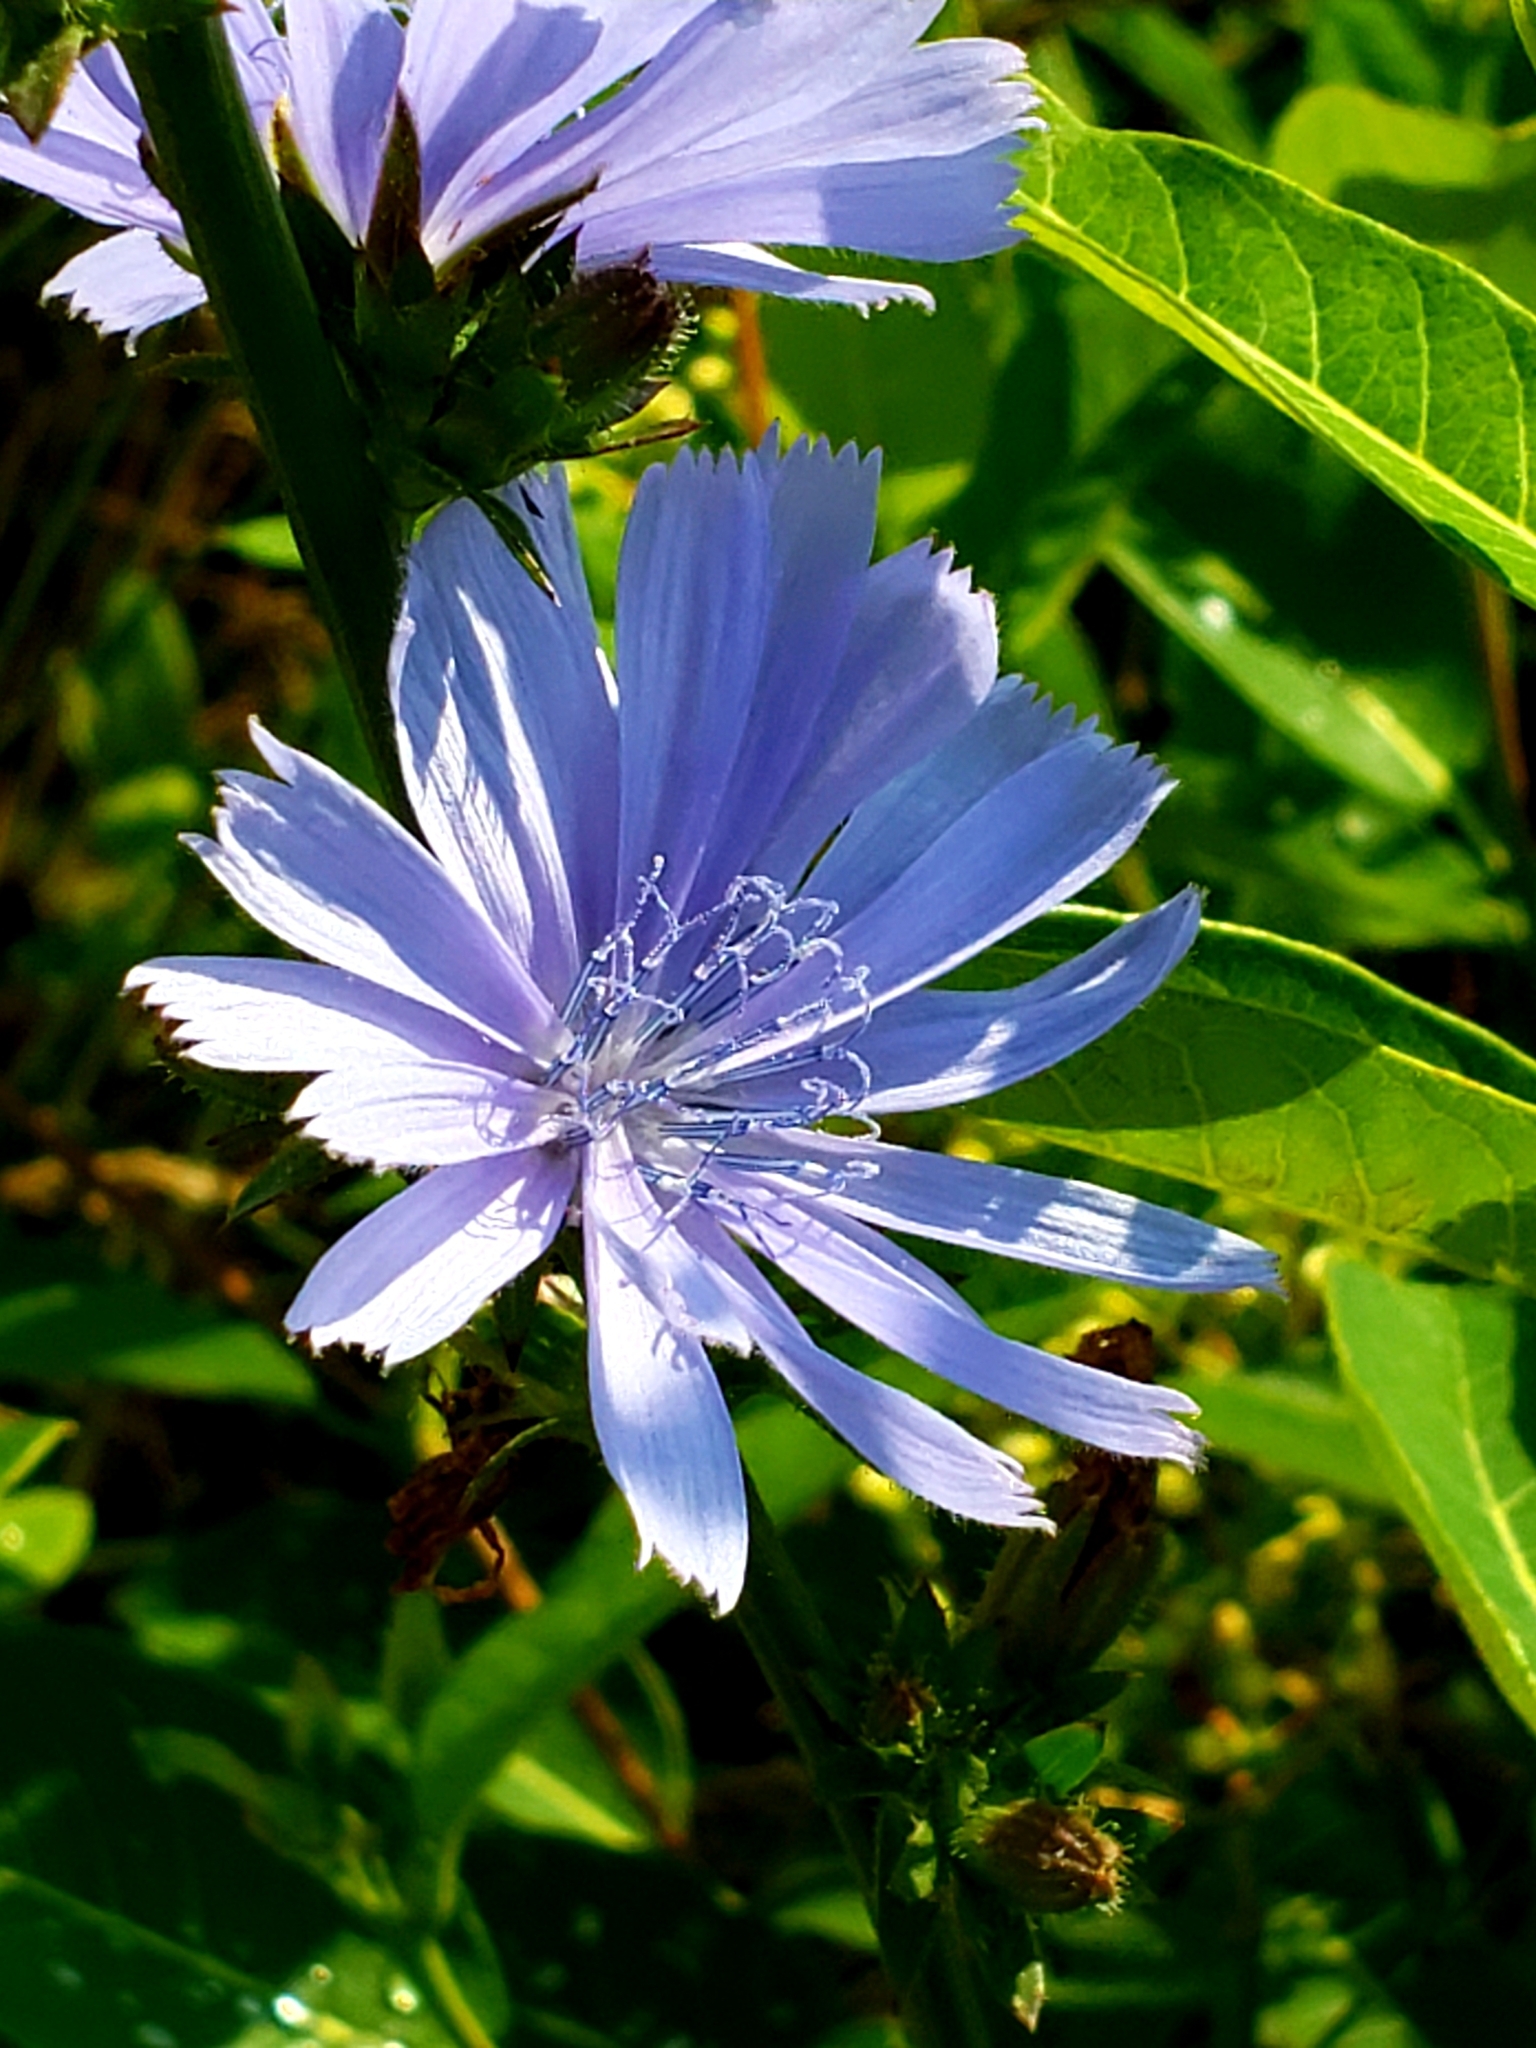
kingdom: Plantae
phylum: Tracheophyta
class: Magnoliopsida
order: Asterales
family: Asteraceae
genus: Cichorium
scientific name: Cichorium intybus
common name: Chicory
